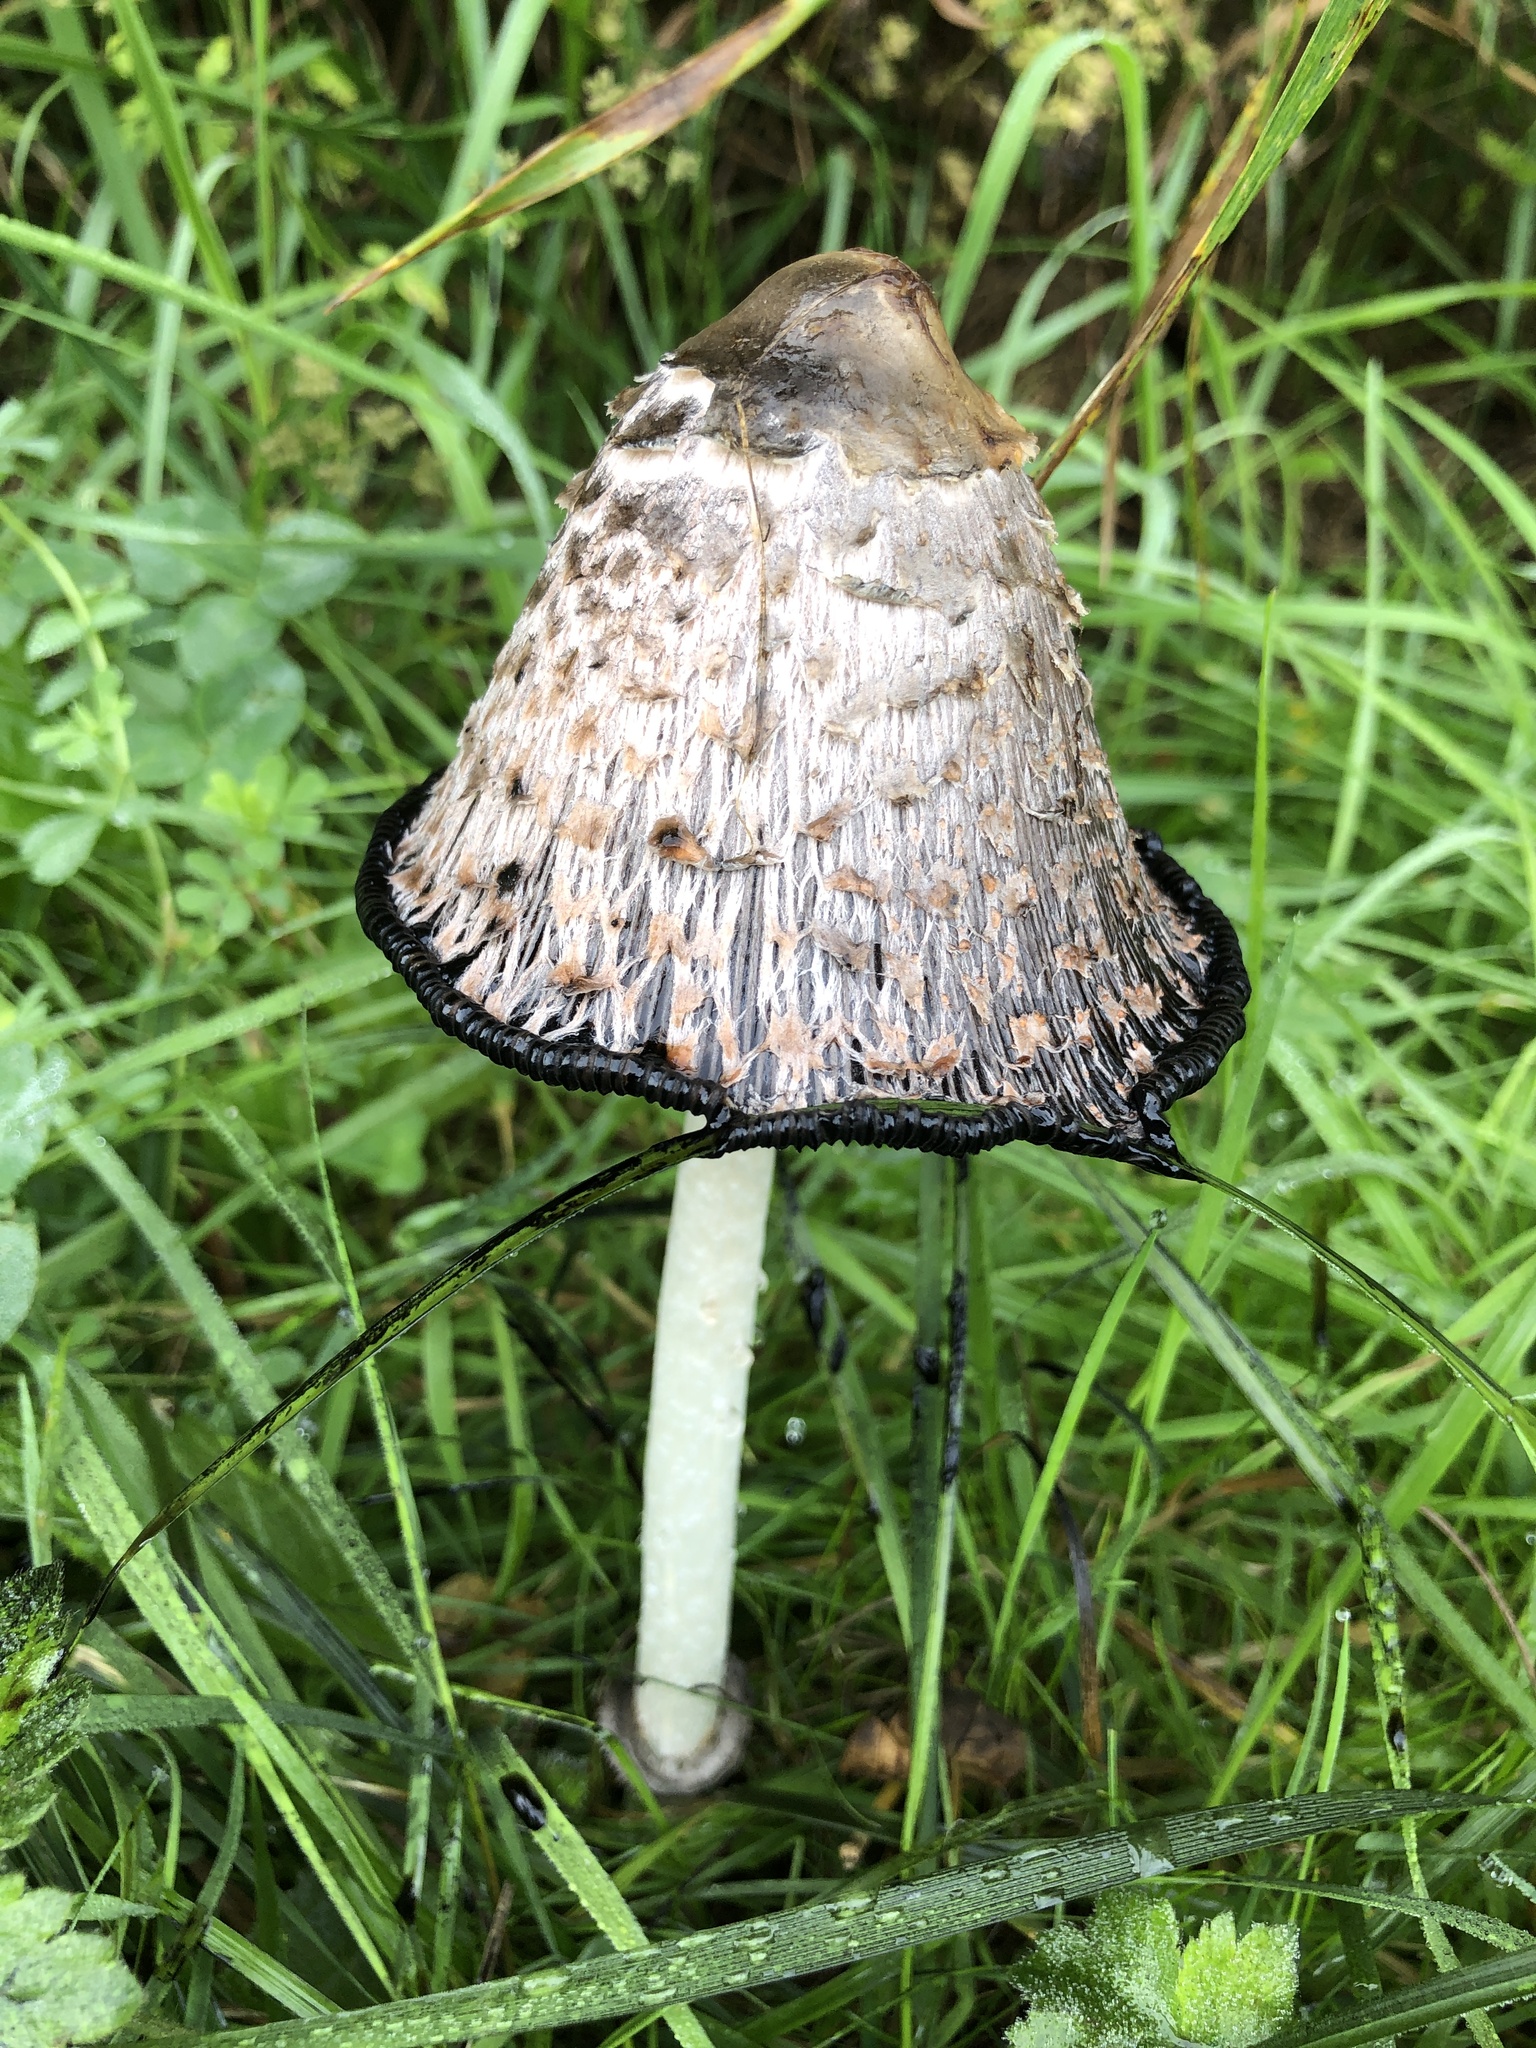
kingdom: Fungi
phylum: Basidiomycota
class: Agaricomycetes
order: Agaricales
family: Agaricaceae
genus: Coprinus
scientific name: Coprinus comatus
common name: Lawyer's wig
